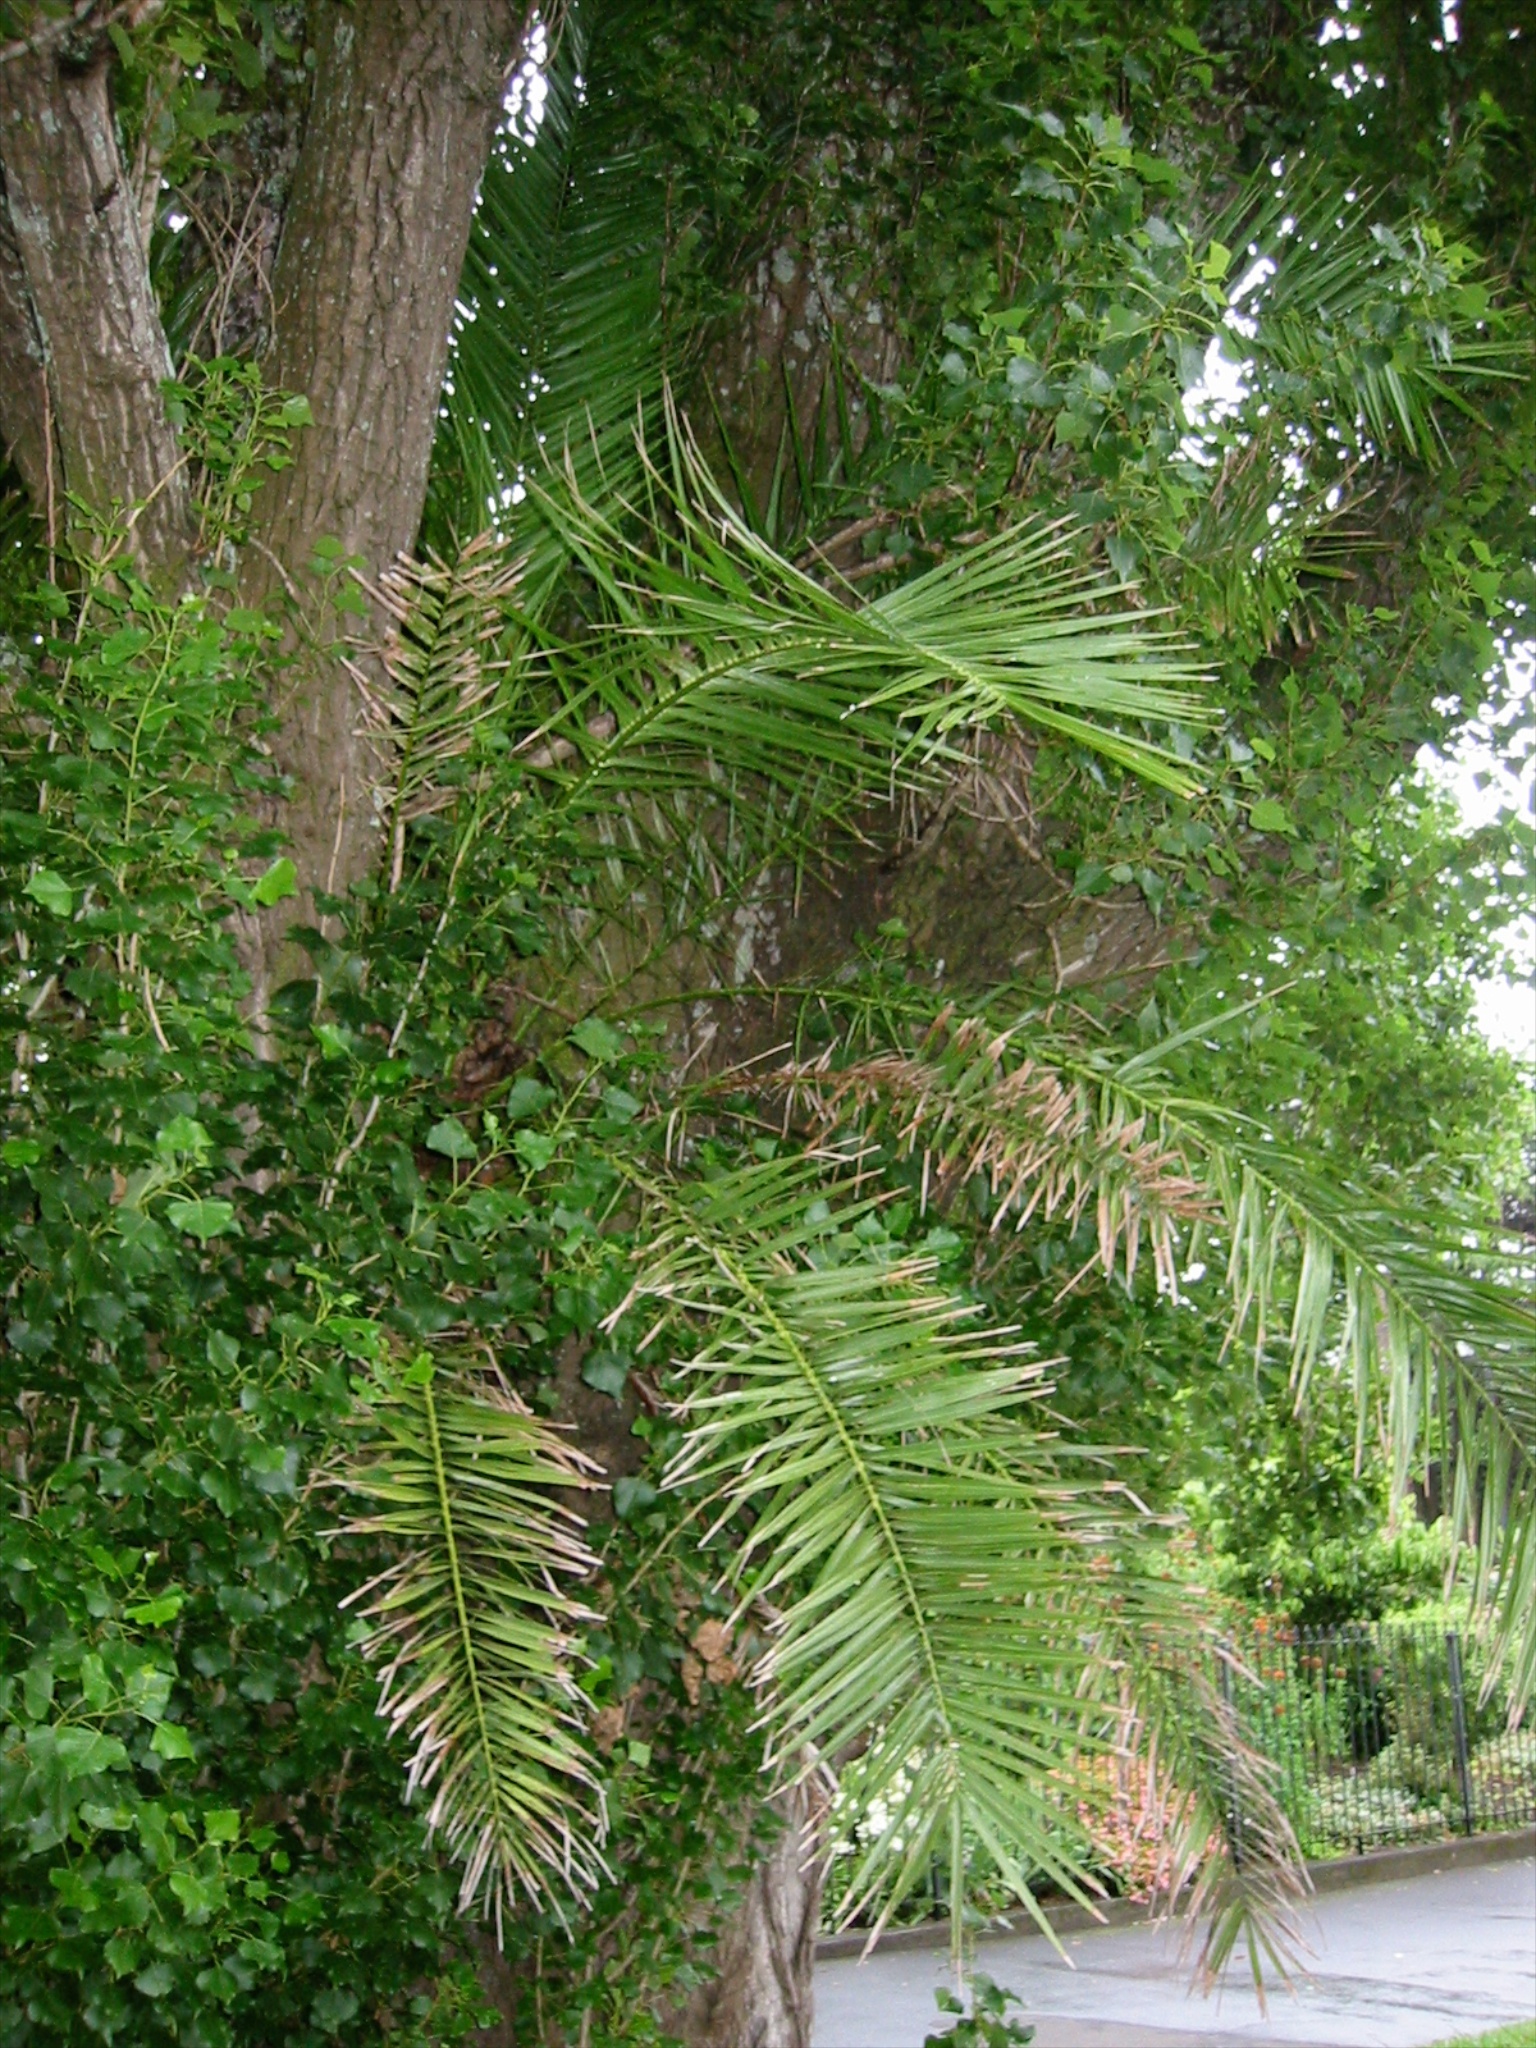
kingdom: Plantae
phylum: Tracheophyta
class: Liliopsida
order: Arecales
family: Arecaceae
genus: Phoenix
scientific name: Phoenix canariensis
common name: Canary island date palm
